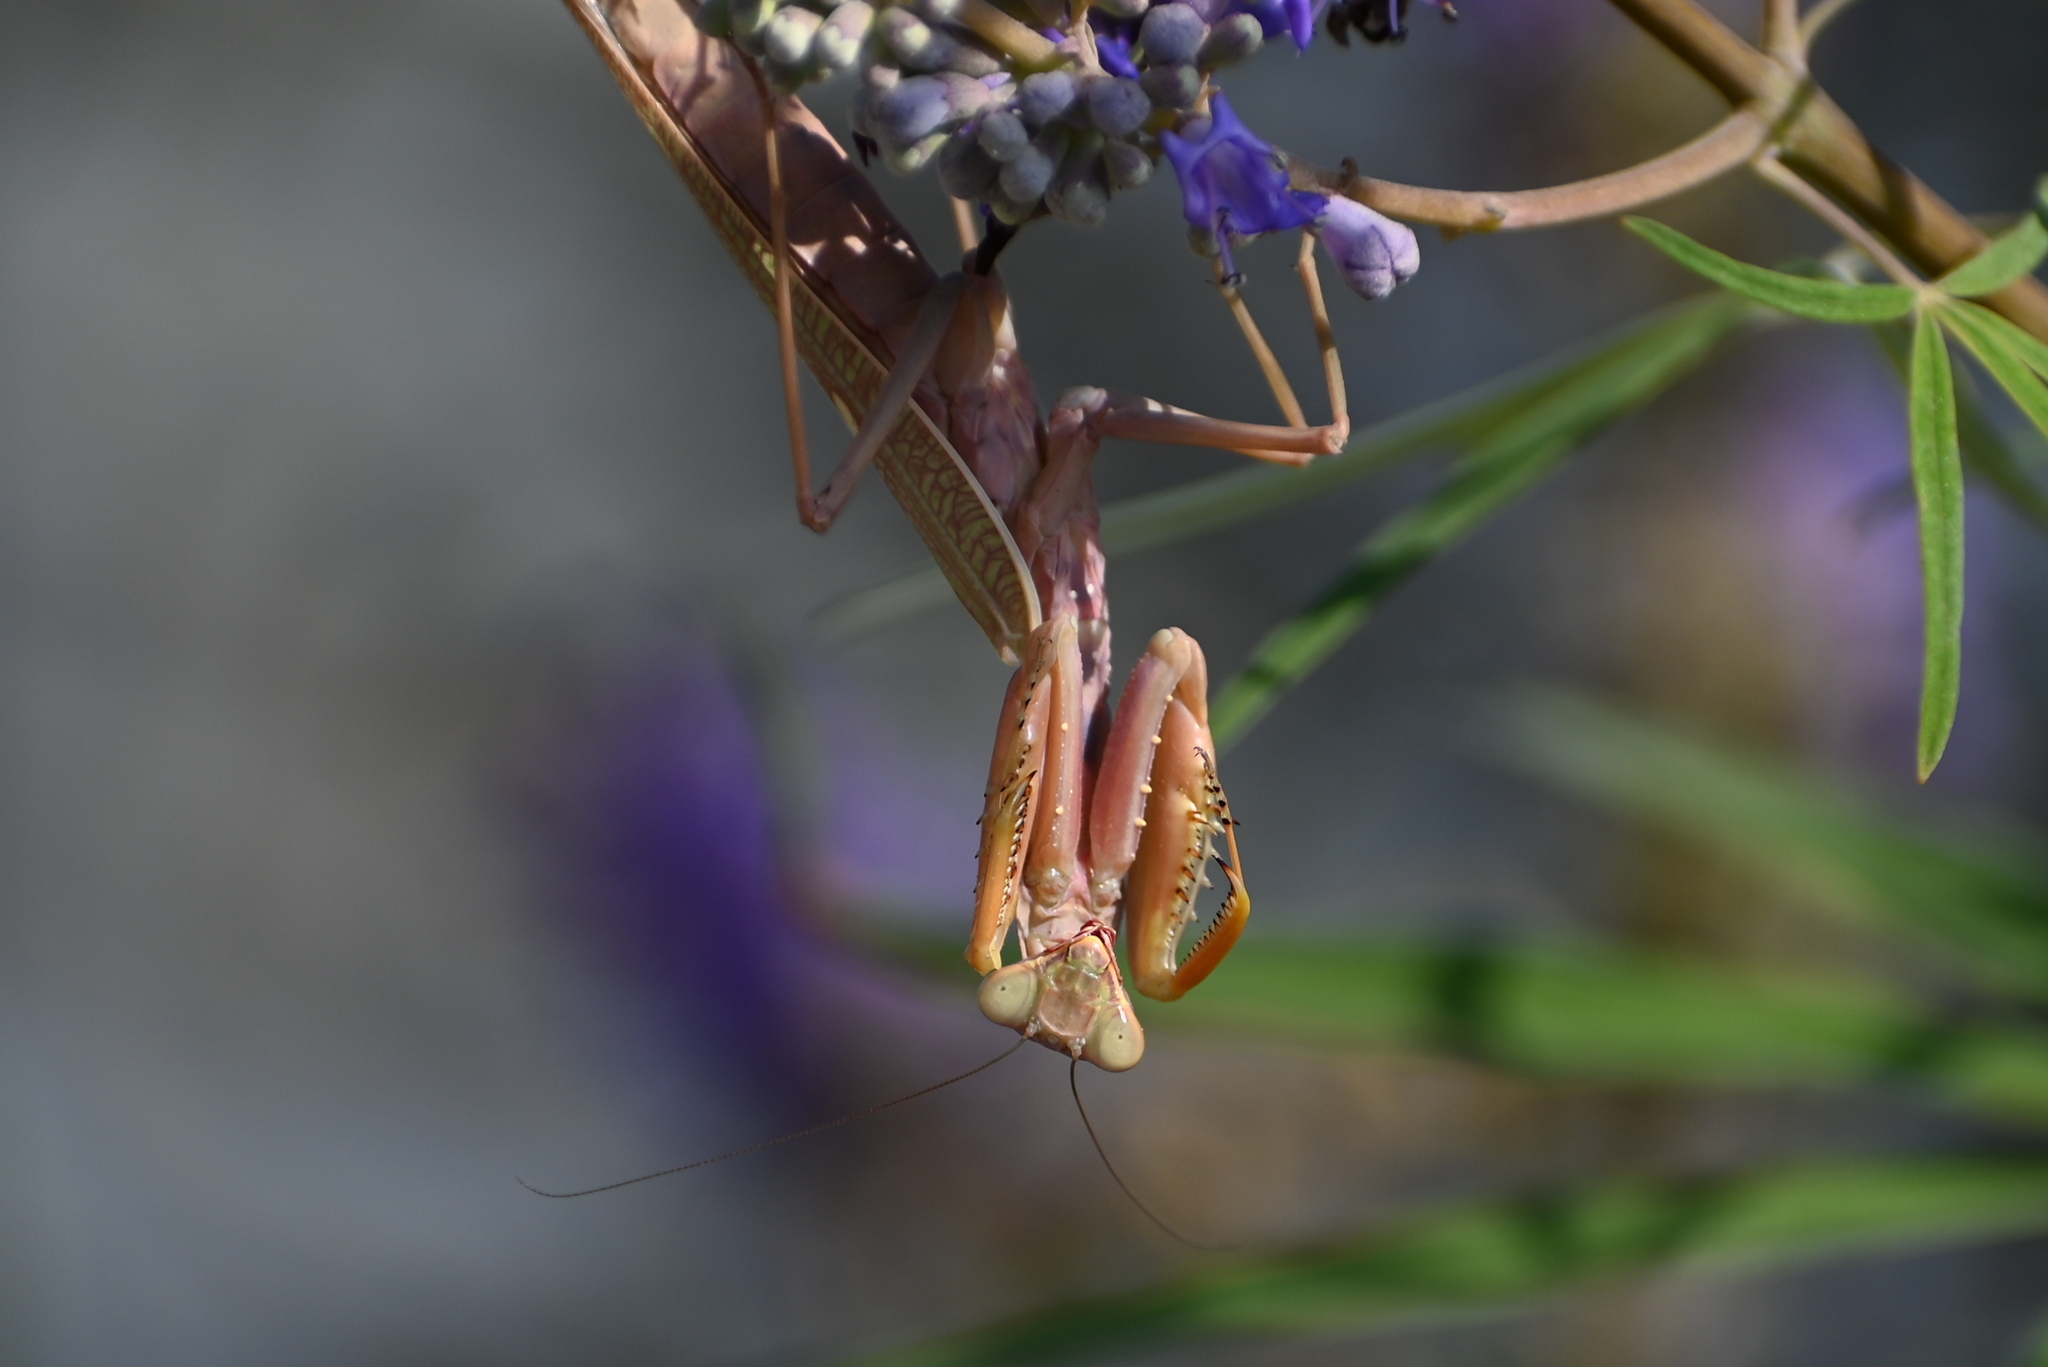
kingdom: Animalia
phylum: Arthropoda
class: Insecta
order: Mantodea
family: Mantidae
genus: Hierodula
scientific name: Hierodula transcaucasica
